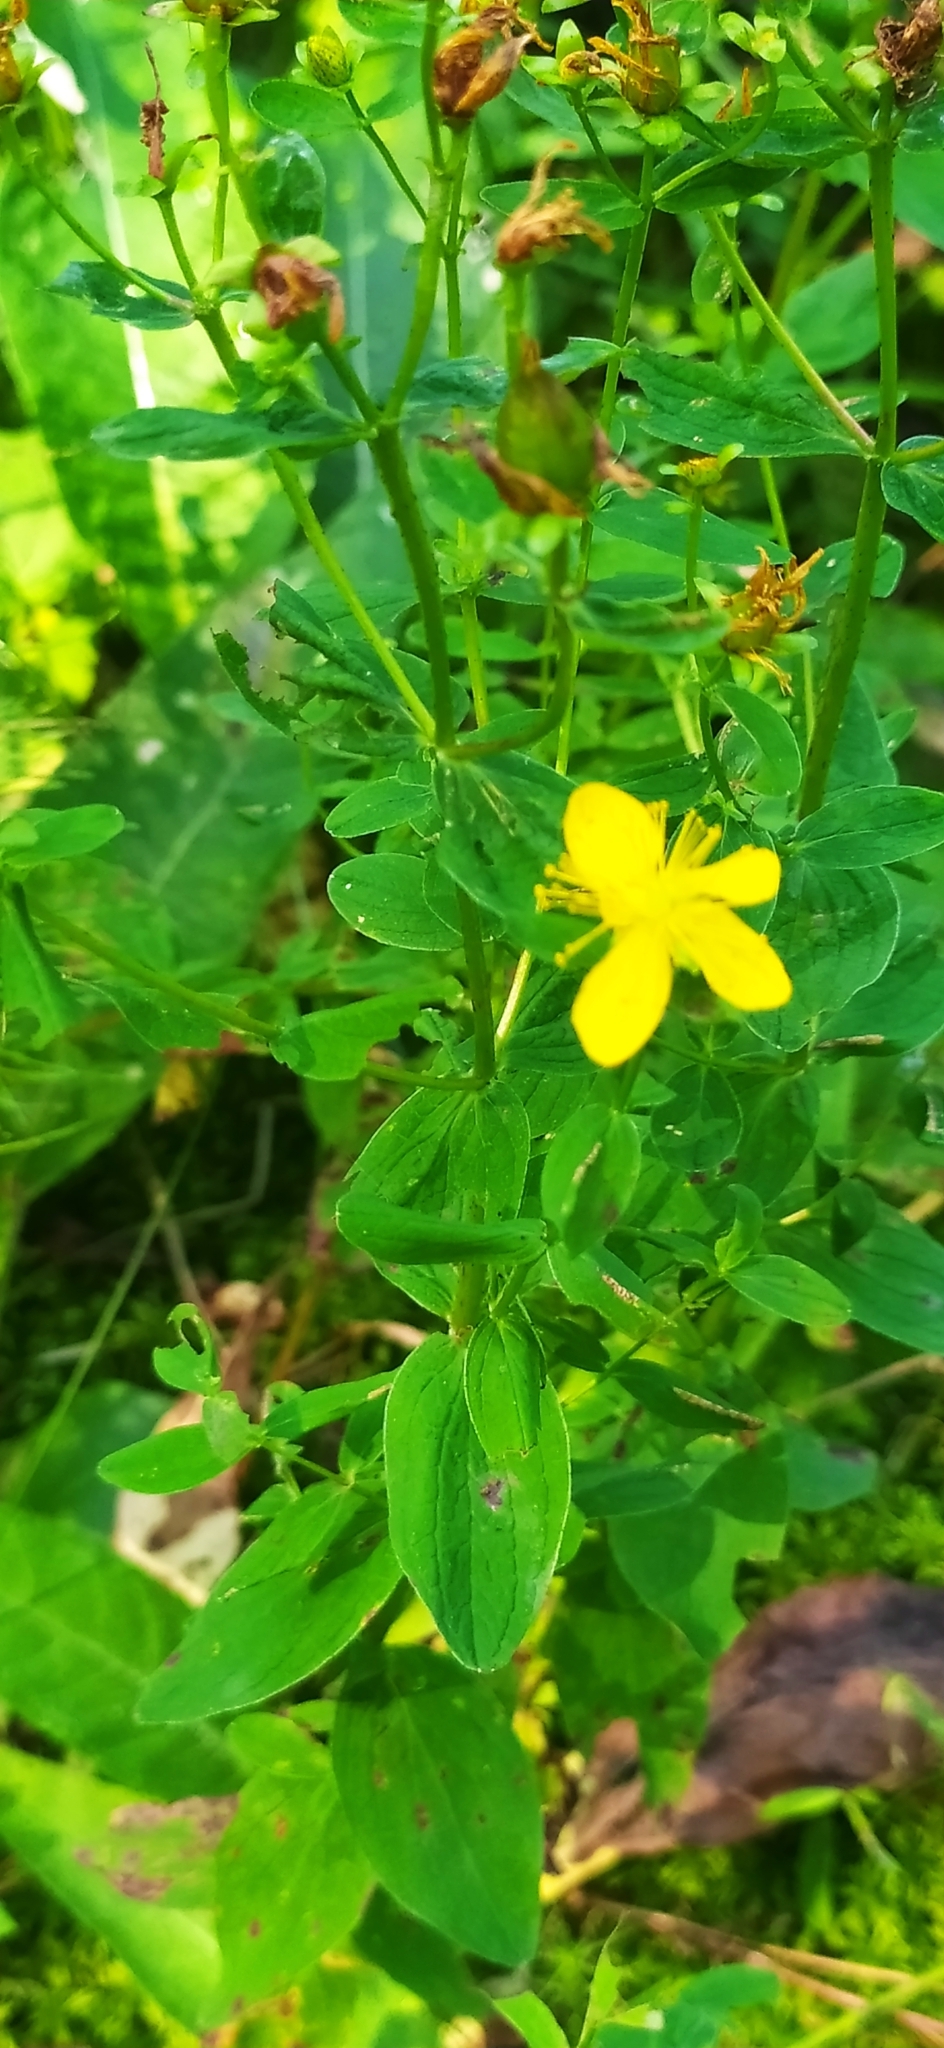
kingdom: Plantae
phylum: Tracheophyta
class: Magnoliopsida
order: Malpighiales
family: Hypericaceae
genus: Hypericum
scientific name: Hypericum maculatum
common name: Imperforate st. john's-wort
